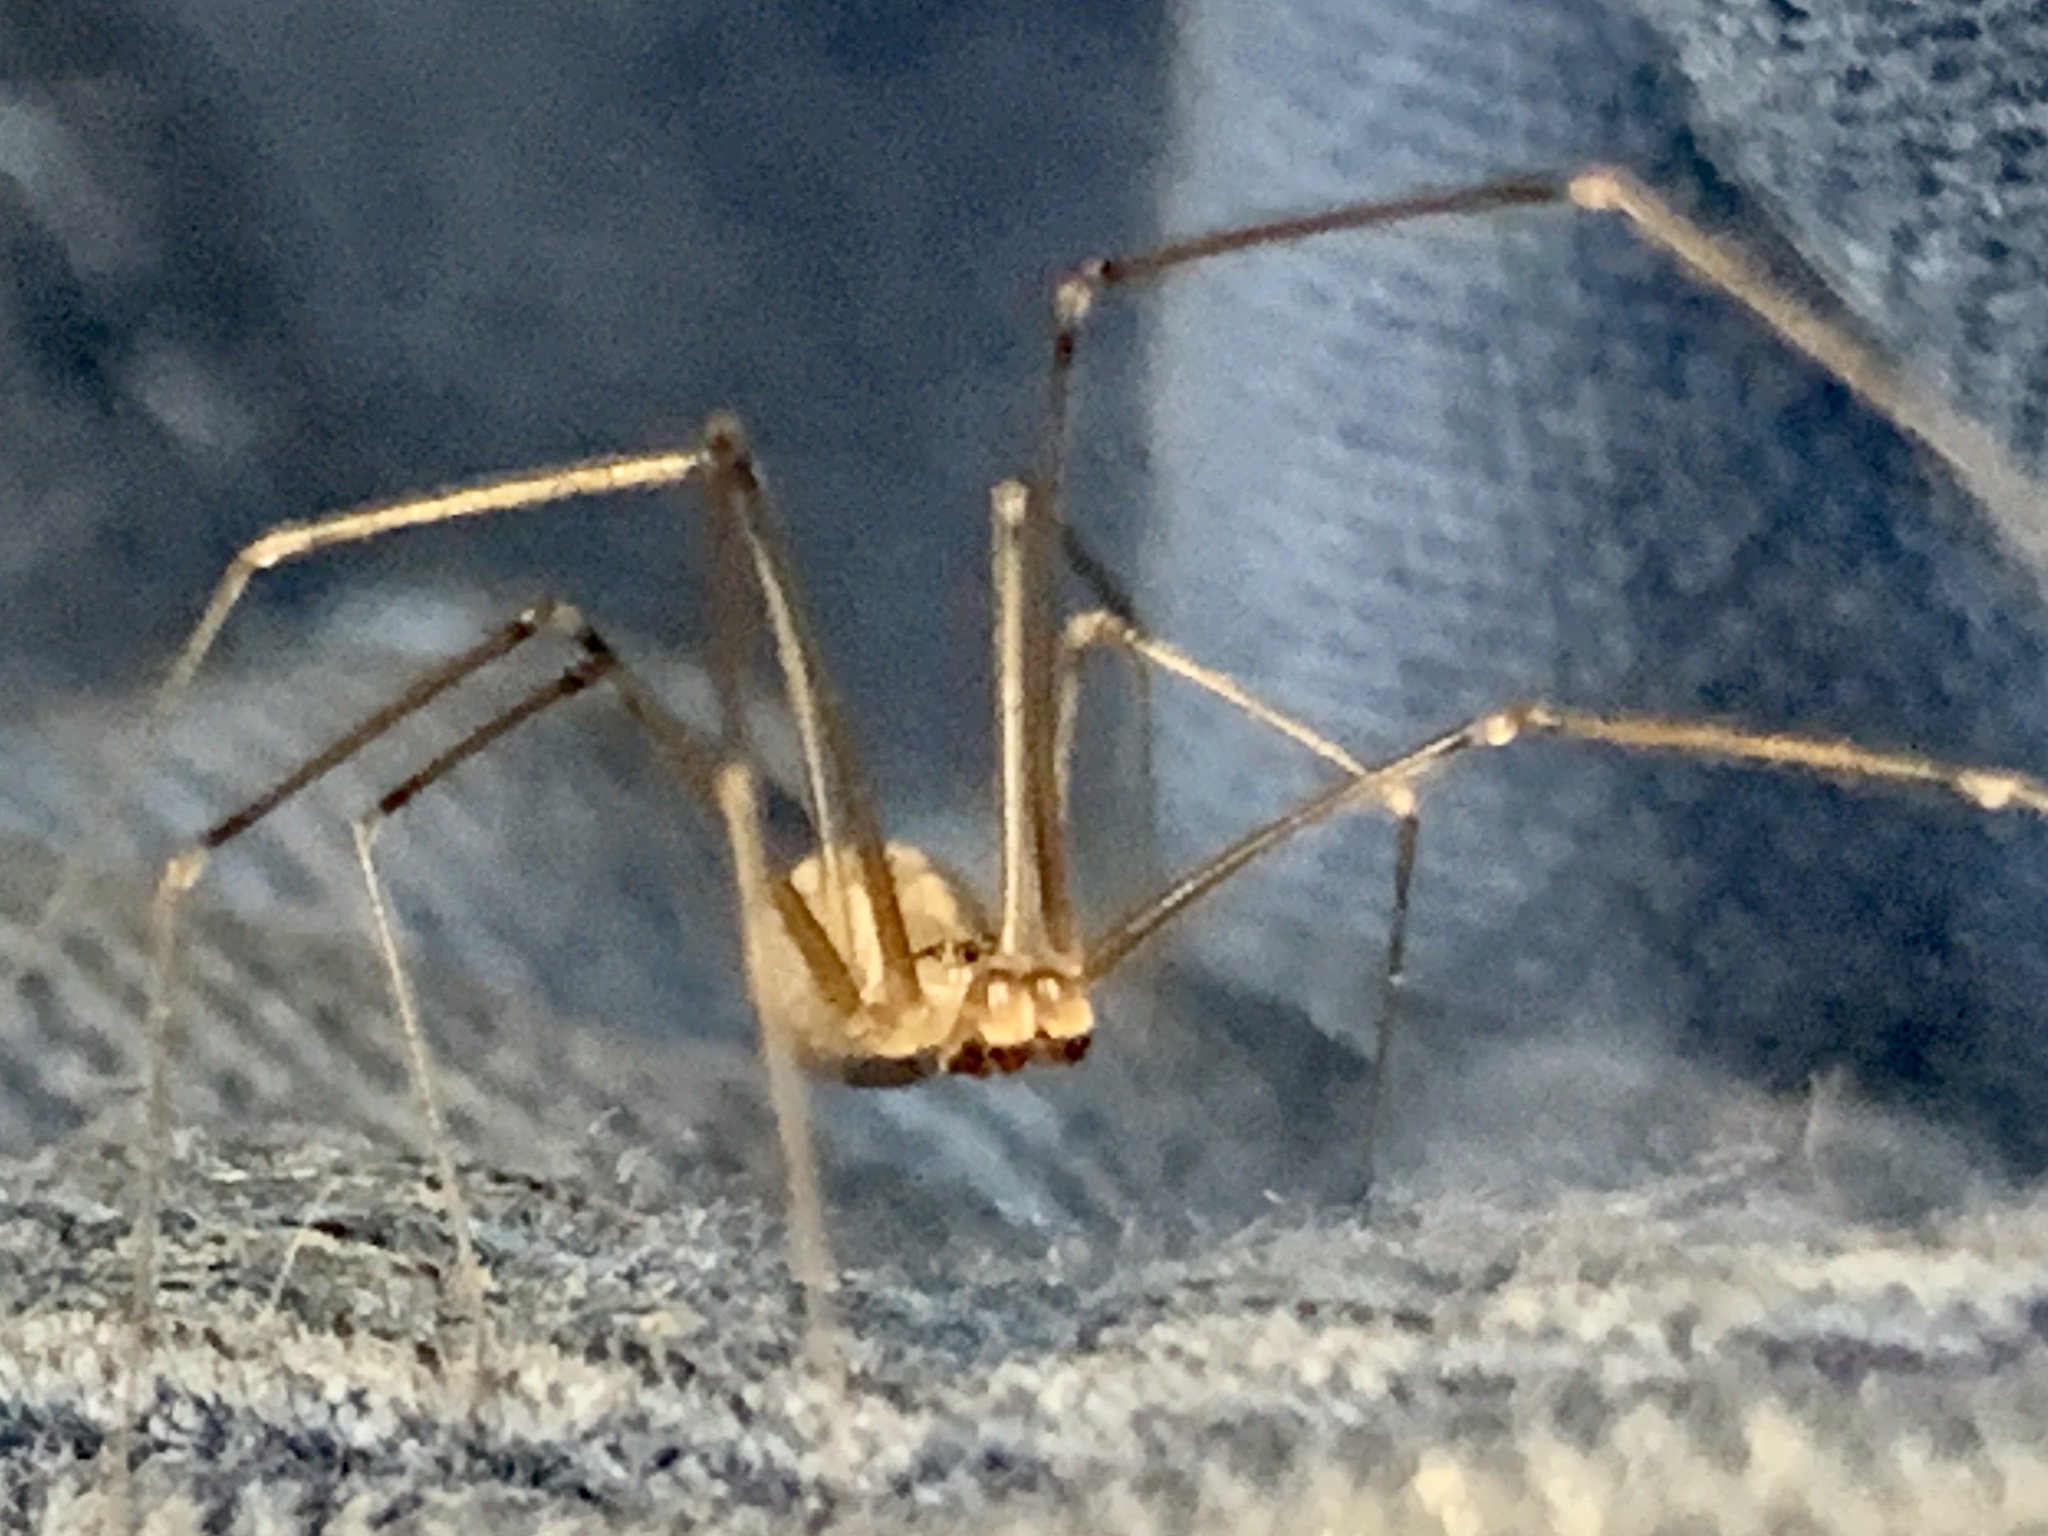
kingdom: Animalia
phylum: Arthropoda
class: Arachnida
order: Araneae
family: Pholcidae
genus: Pholcus
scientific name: Pholcus manueli
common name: Cellar spider
